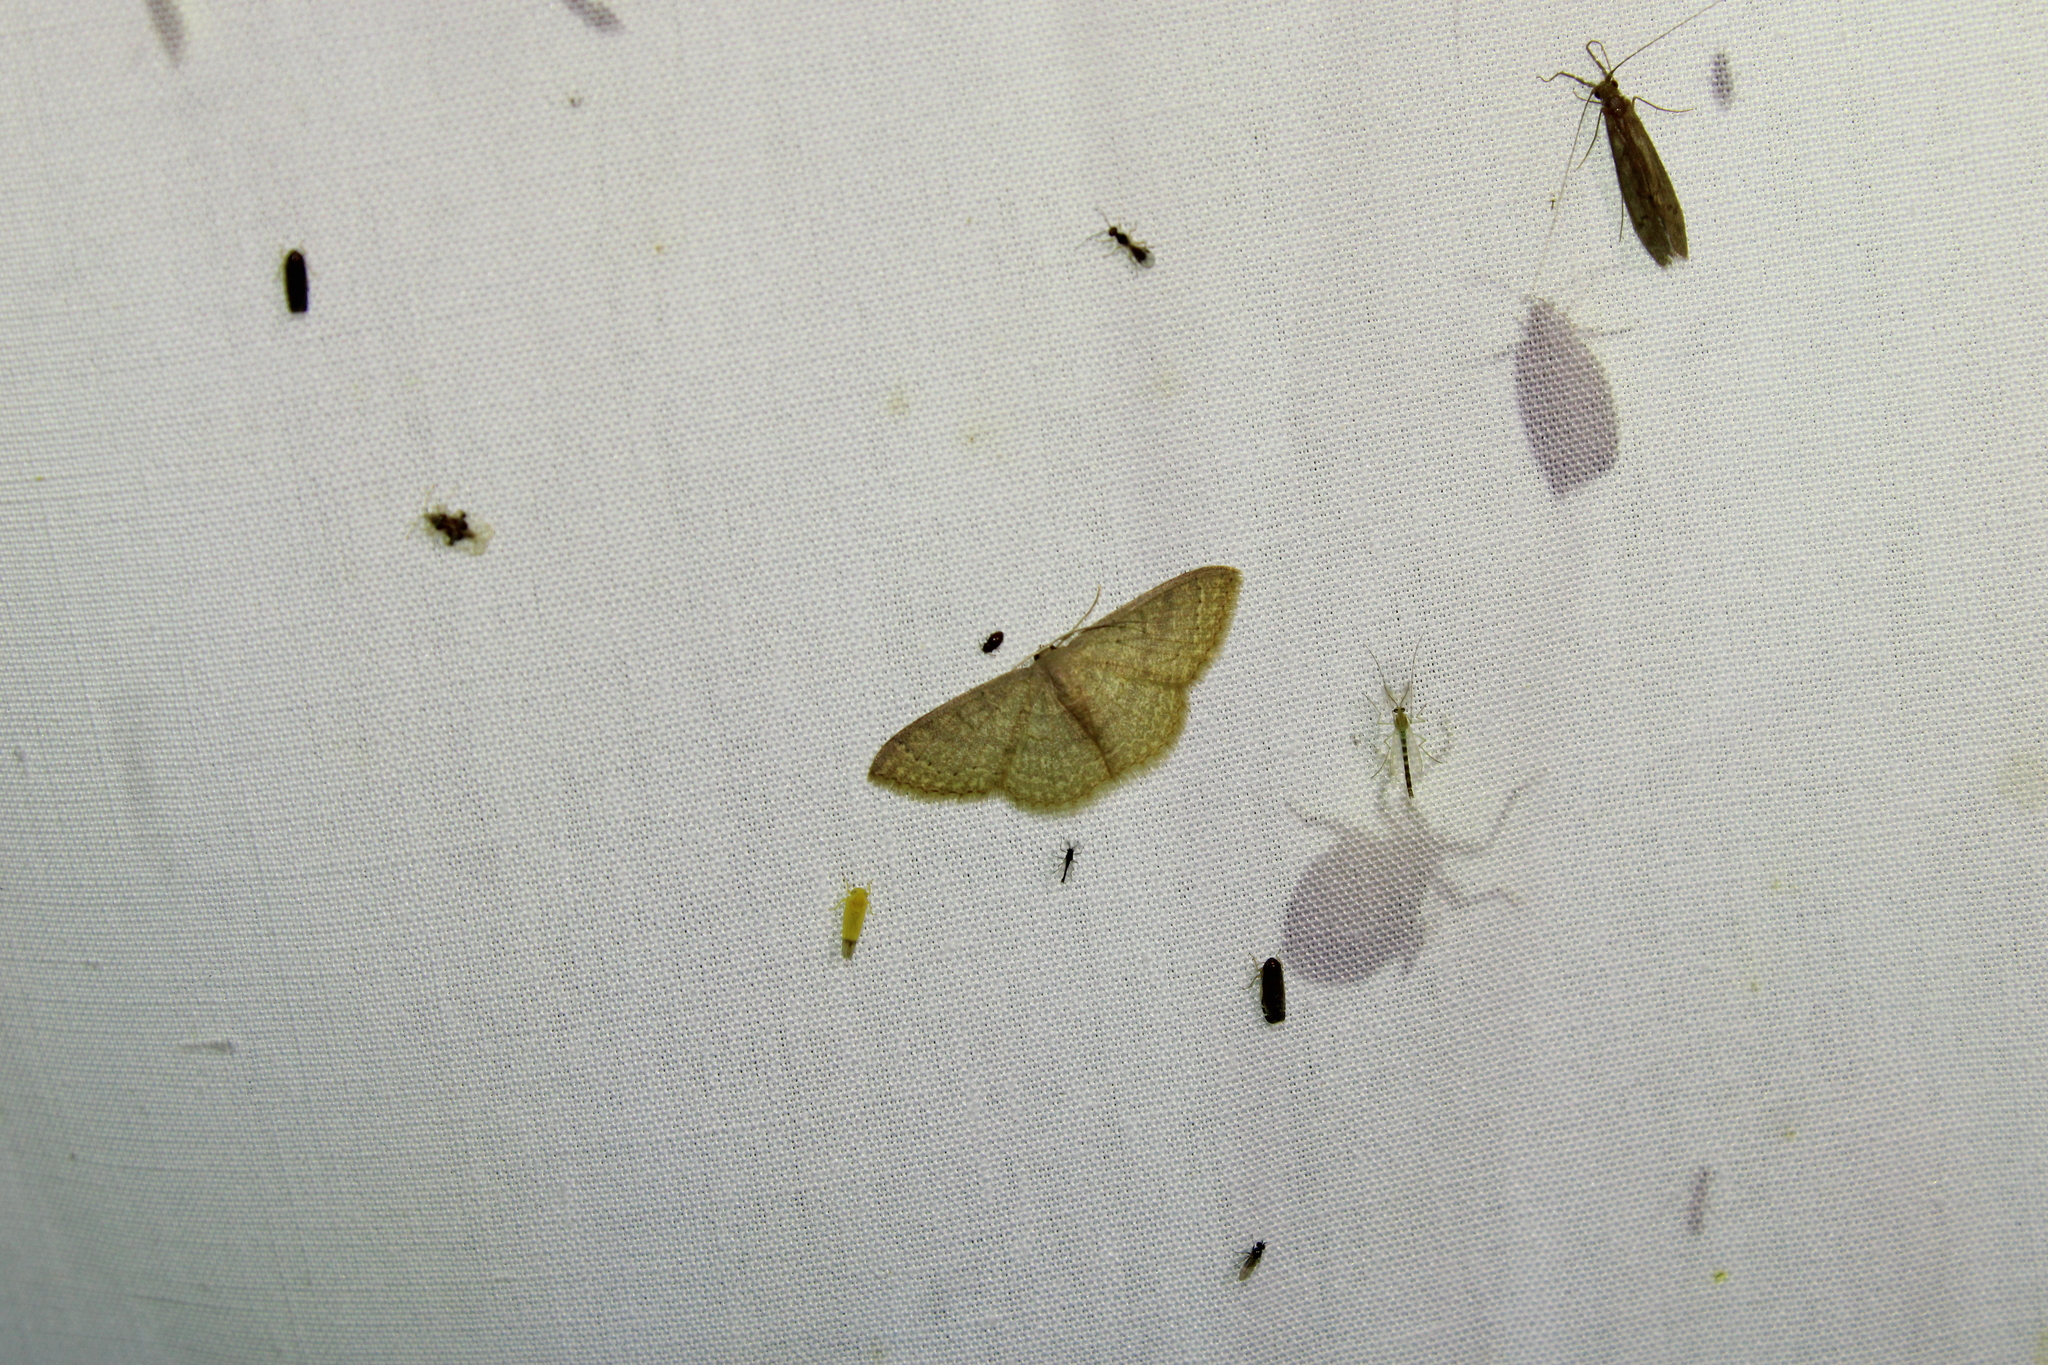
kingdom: Animalia
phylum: Arthropoda
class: Insecta
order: Lepidoptera
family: Geometridae
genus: Pleuroprucha
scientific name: Pleuroprucha insulsaria
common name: Common tan wave
